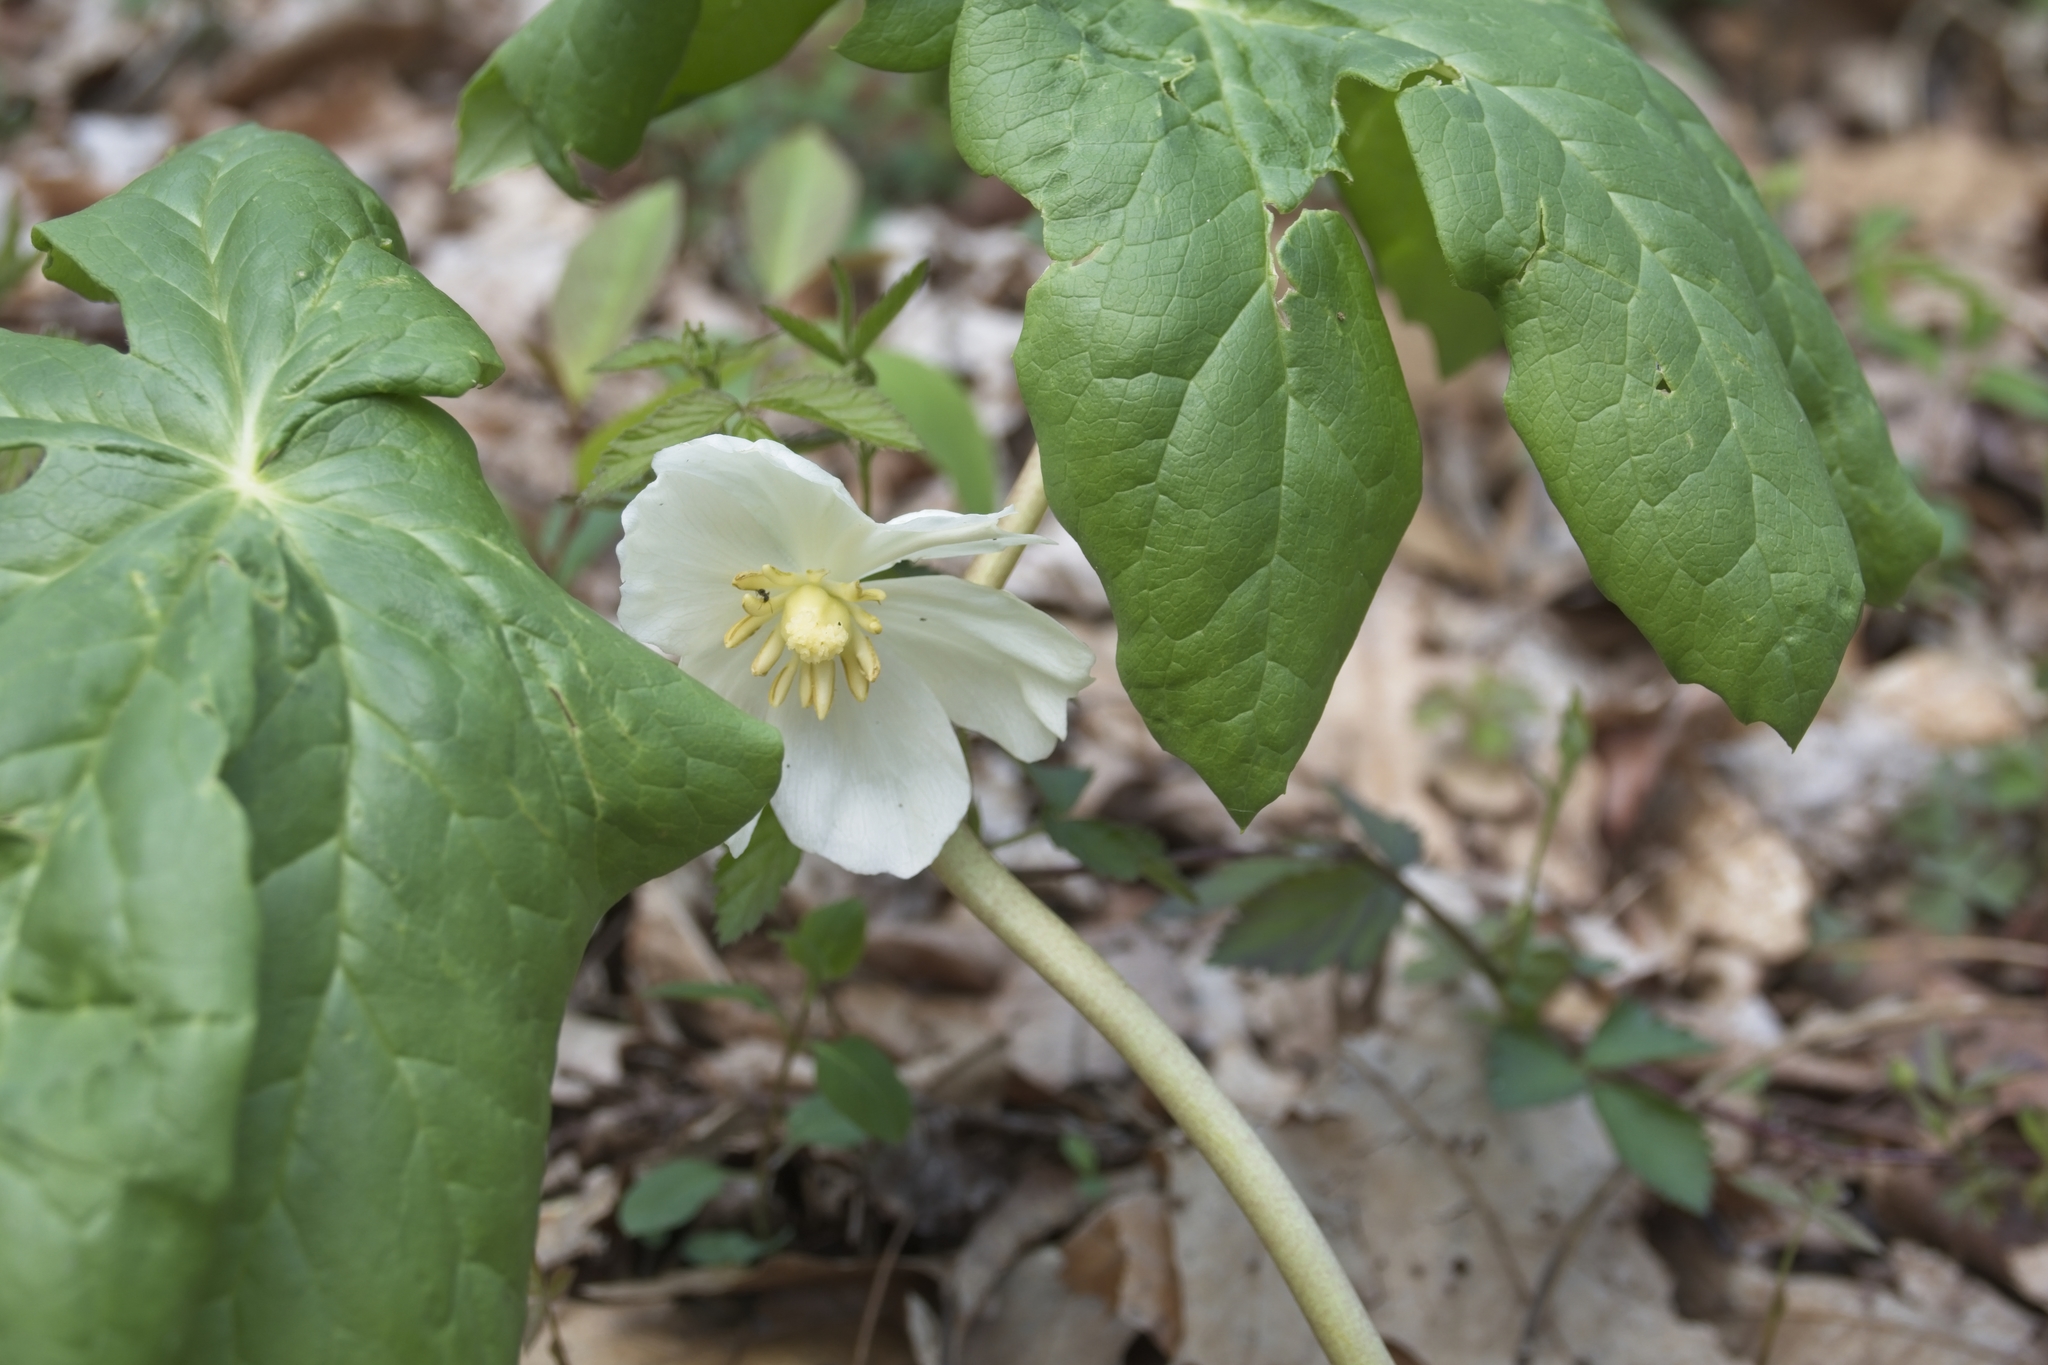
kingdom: Plantae
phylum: Tracheophyta
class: Magnoliopsida
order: Ranunculales
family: Berberidaceae
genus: Podophyllum
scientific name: Podophyllum peltatum
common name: Wild mandrake
